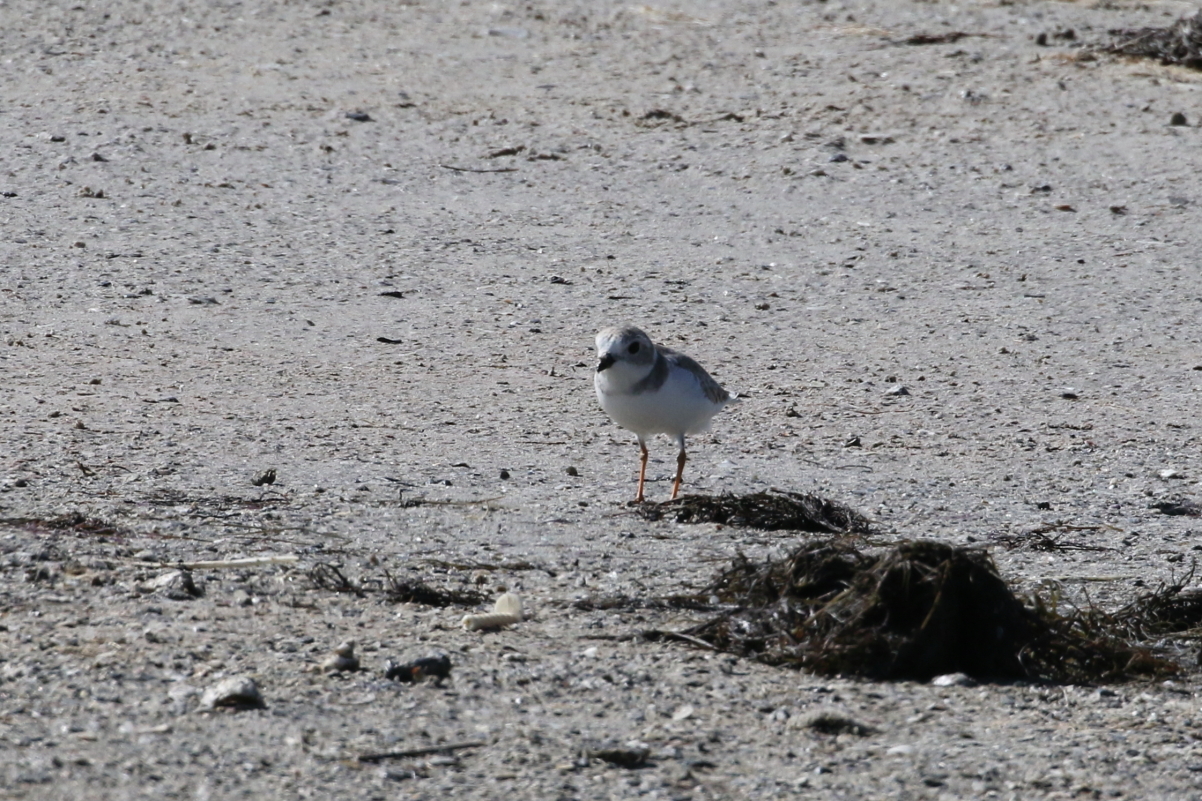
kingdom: Animalia
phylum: Chordata
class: Aves
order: Charadriiformes
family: Charadriidae
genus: Charadrius
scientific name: Charadrius melodus
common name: Piping plover
